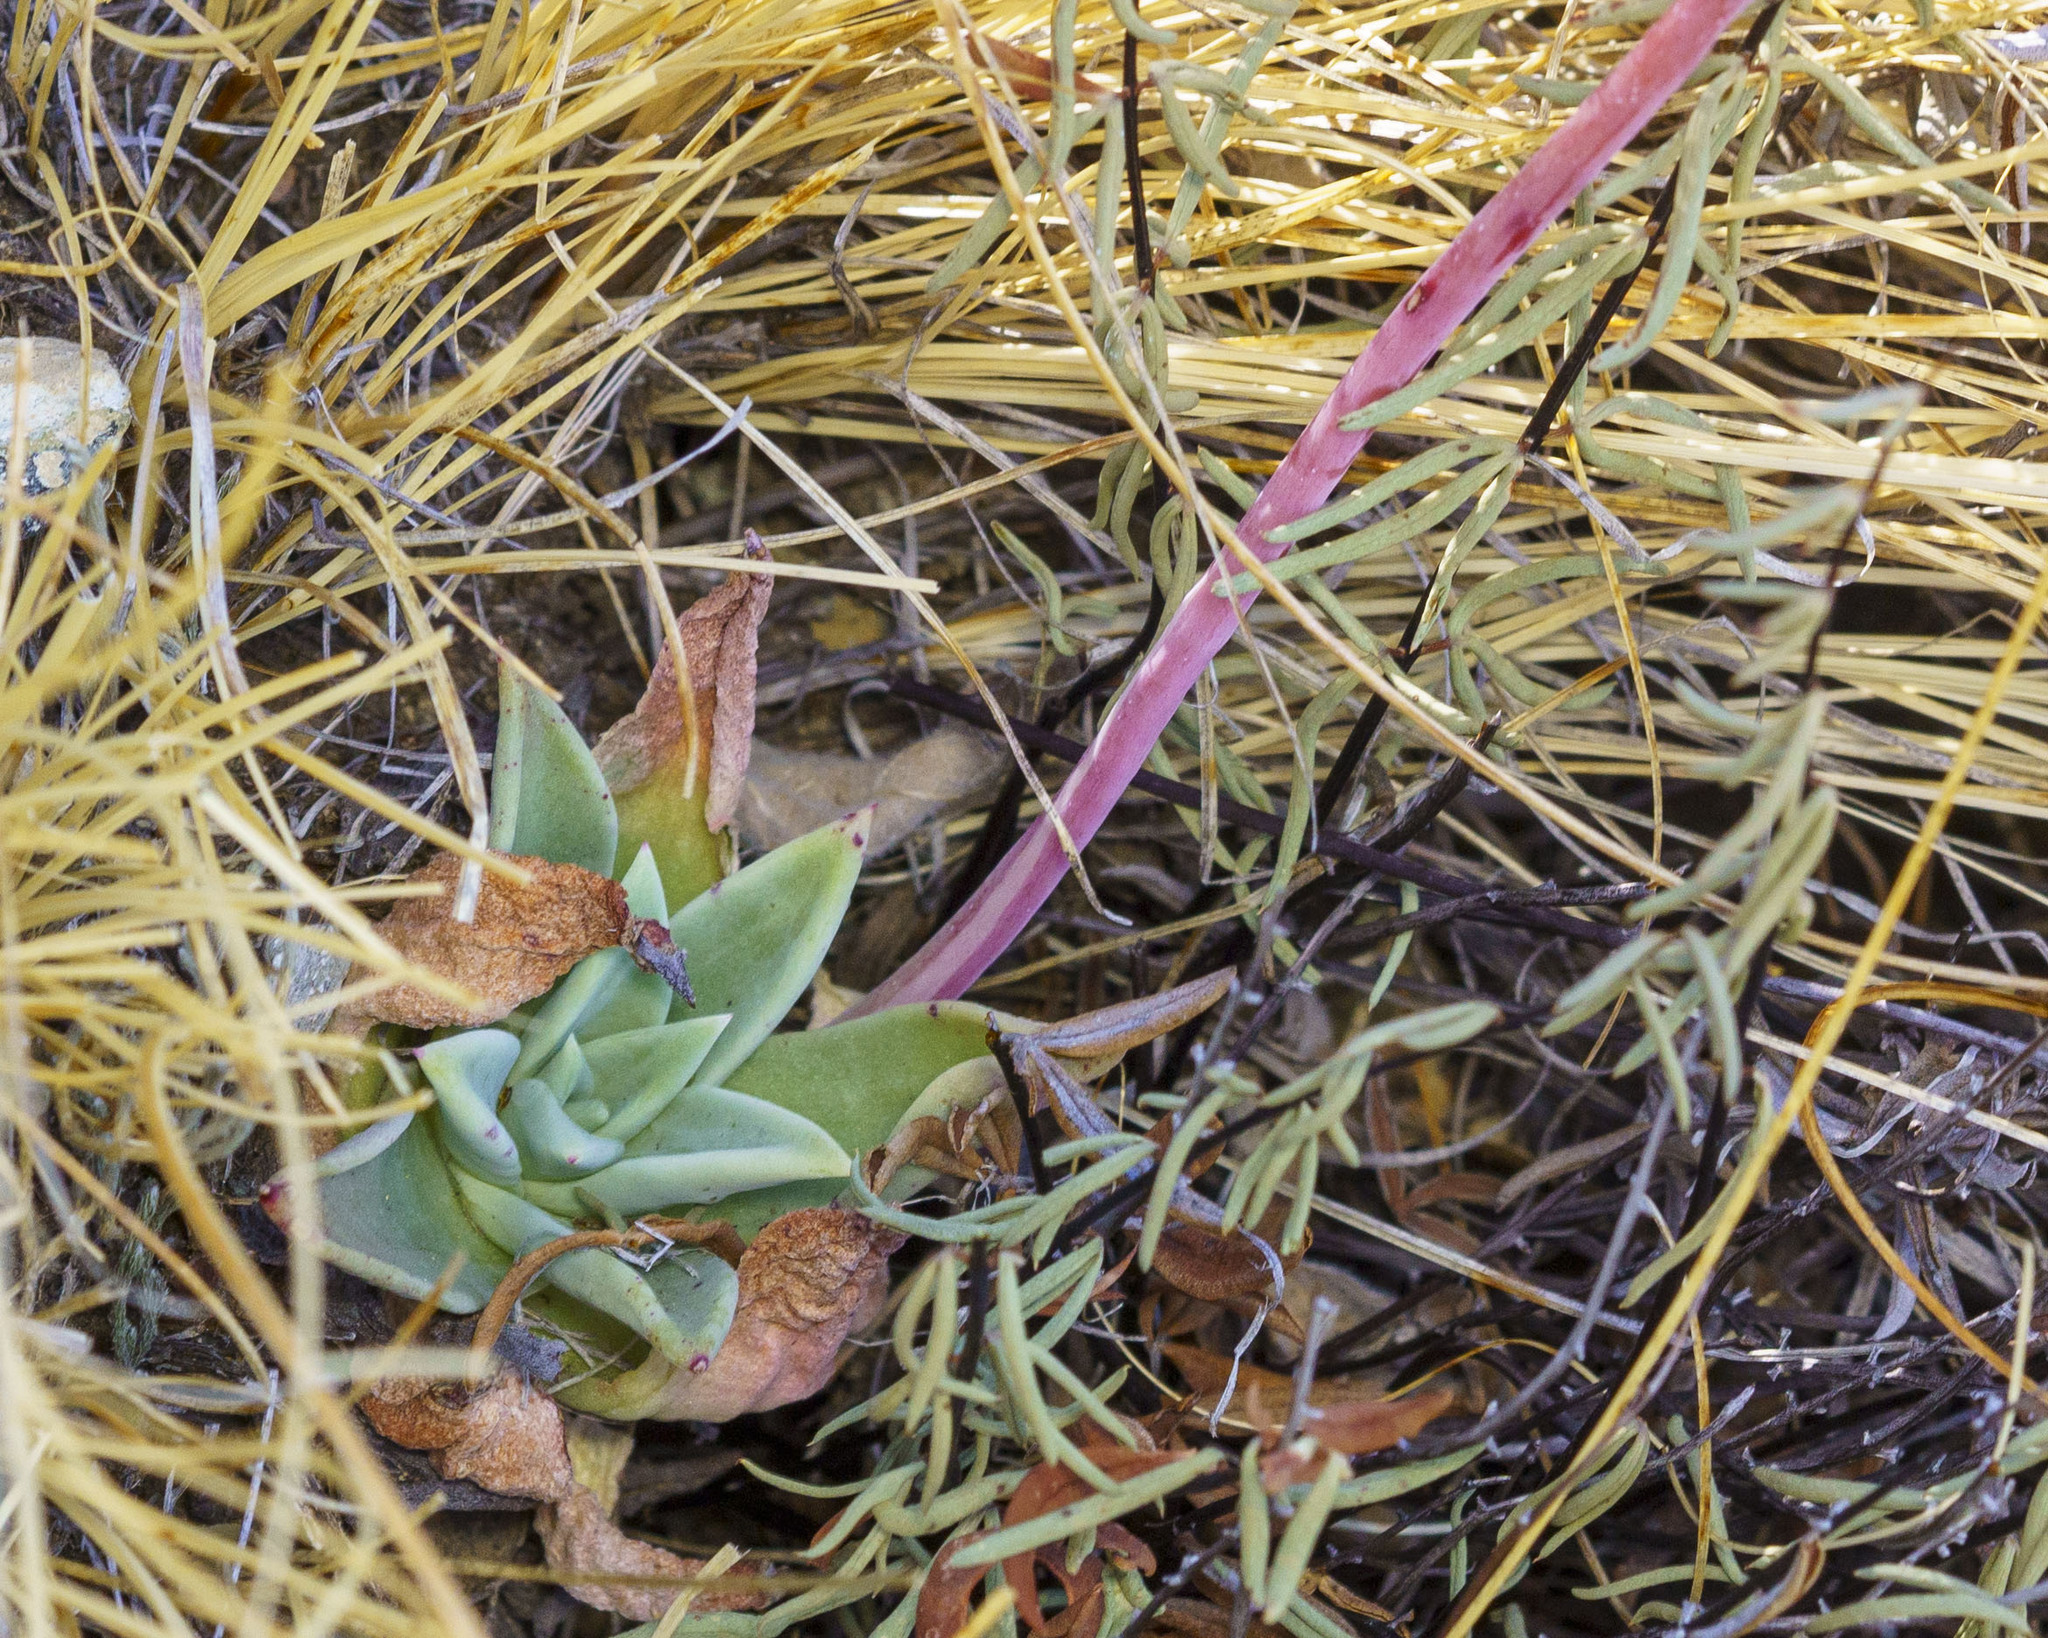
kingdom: Plantae
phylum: Tracheophyta
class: Magnoliopsida
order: Saxifragales
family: Crassulaceae
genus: Dudleya
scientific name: Dudleya rigida
